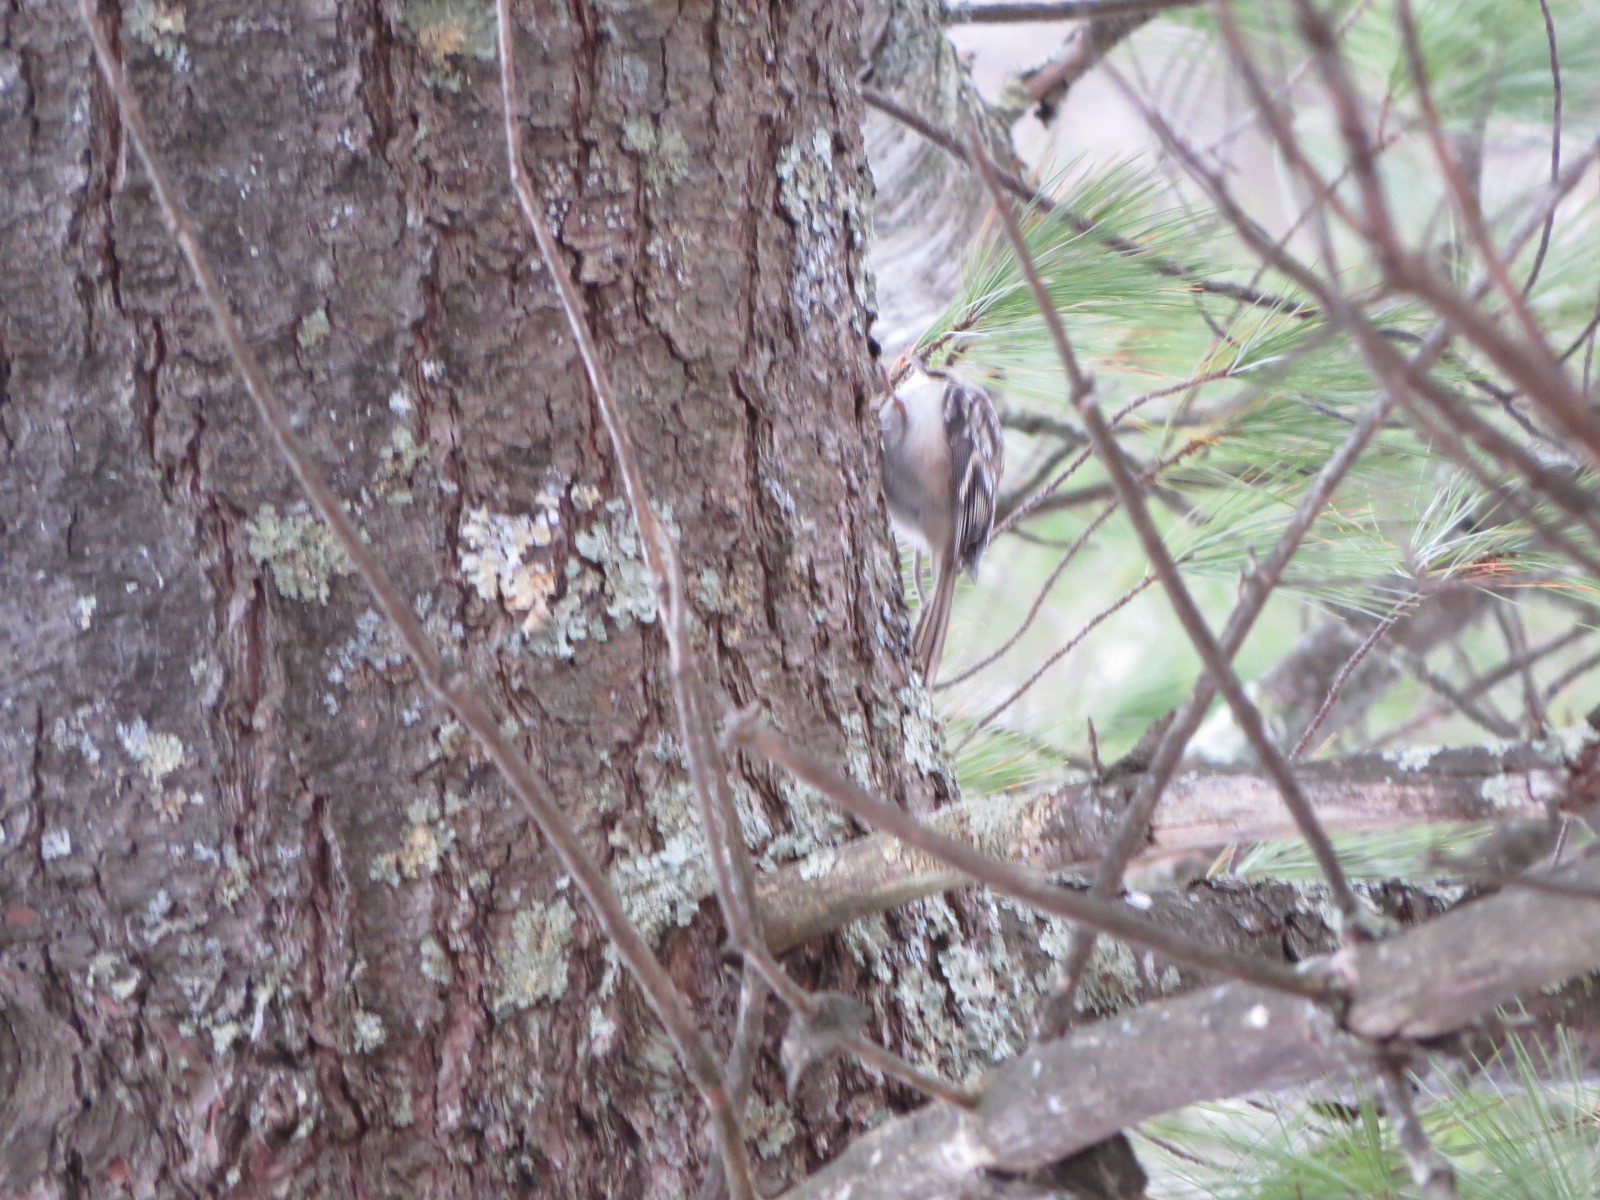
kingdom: Animalia
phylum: Chordata
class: Aves
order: Passeriformes
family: Certhiidae
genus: Certhia
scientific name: Certhia americana
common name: Brown creeper
